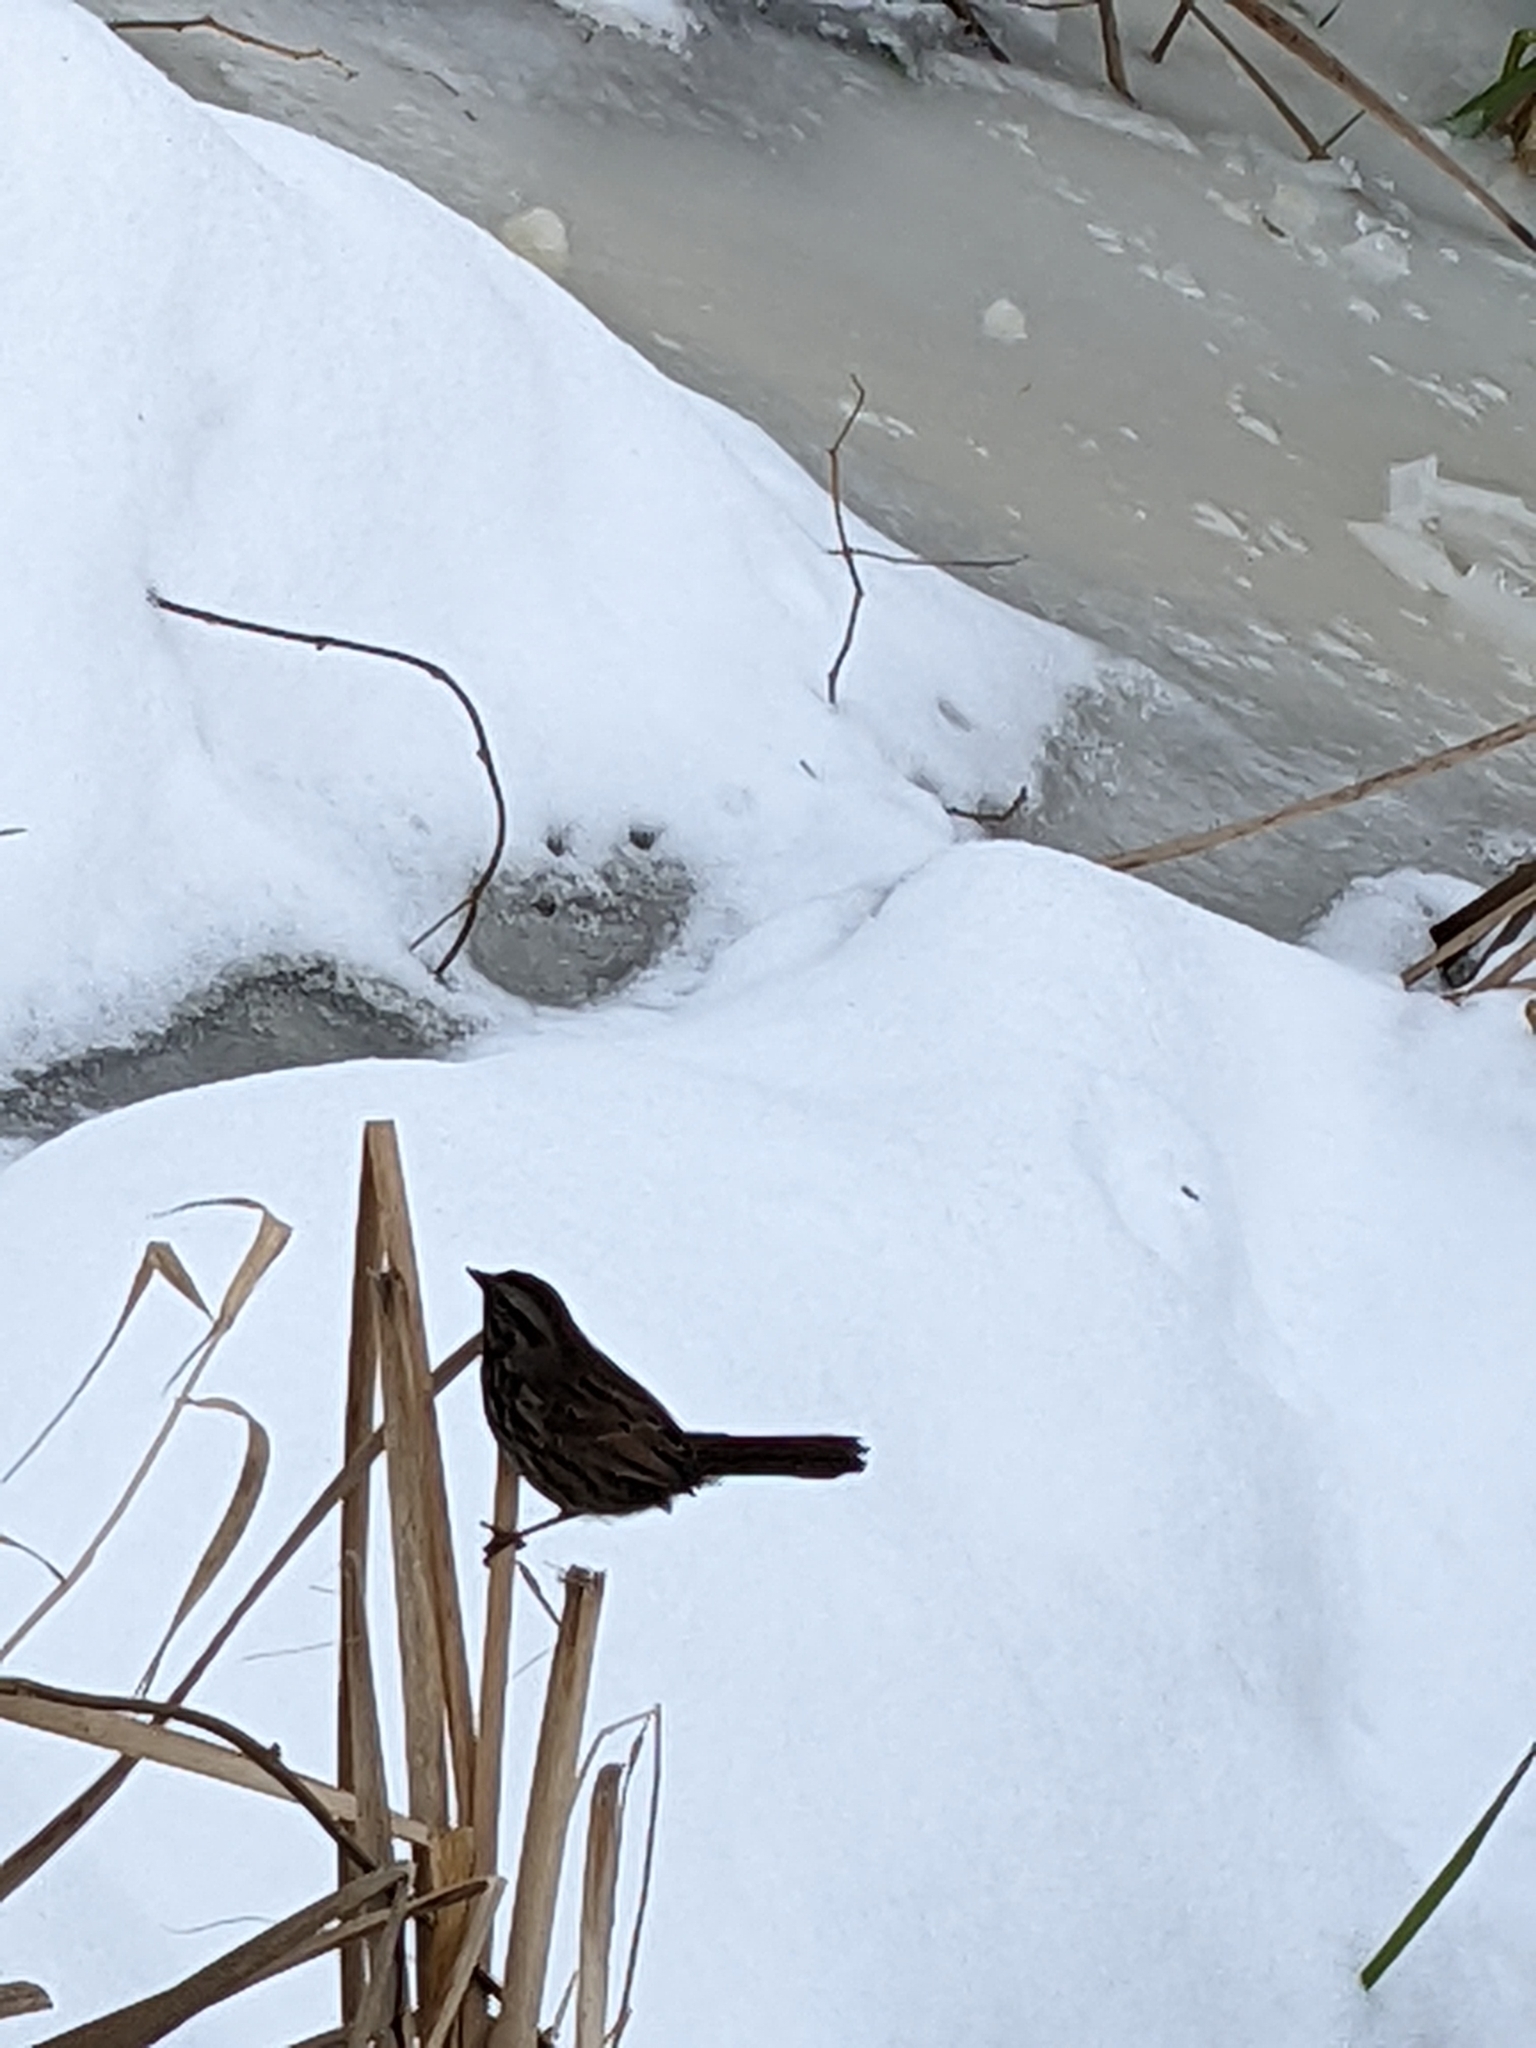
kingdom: Animalia
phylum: Chordata
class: Aves
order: Passeriformes
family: Passerellidae
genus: Melospiza
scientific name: Melospiza melodia
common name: Song sparrow
